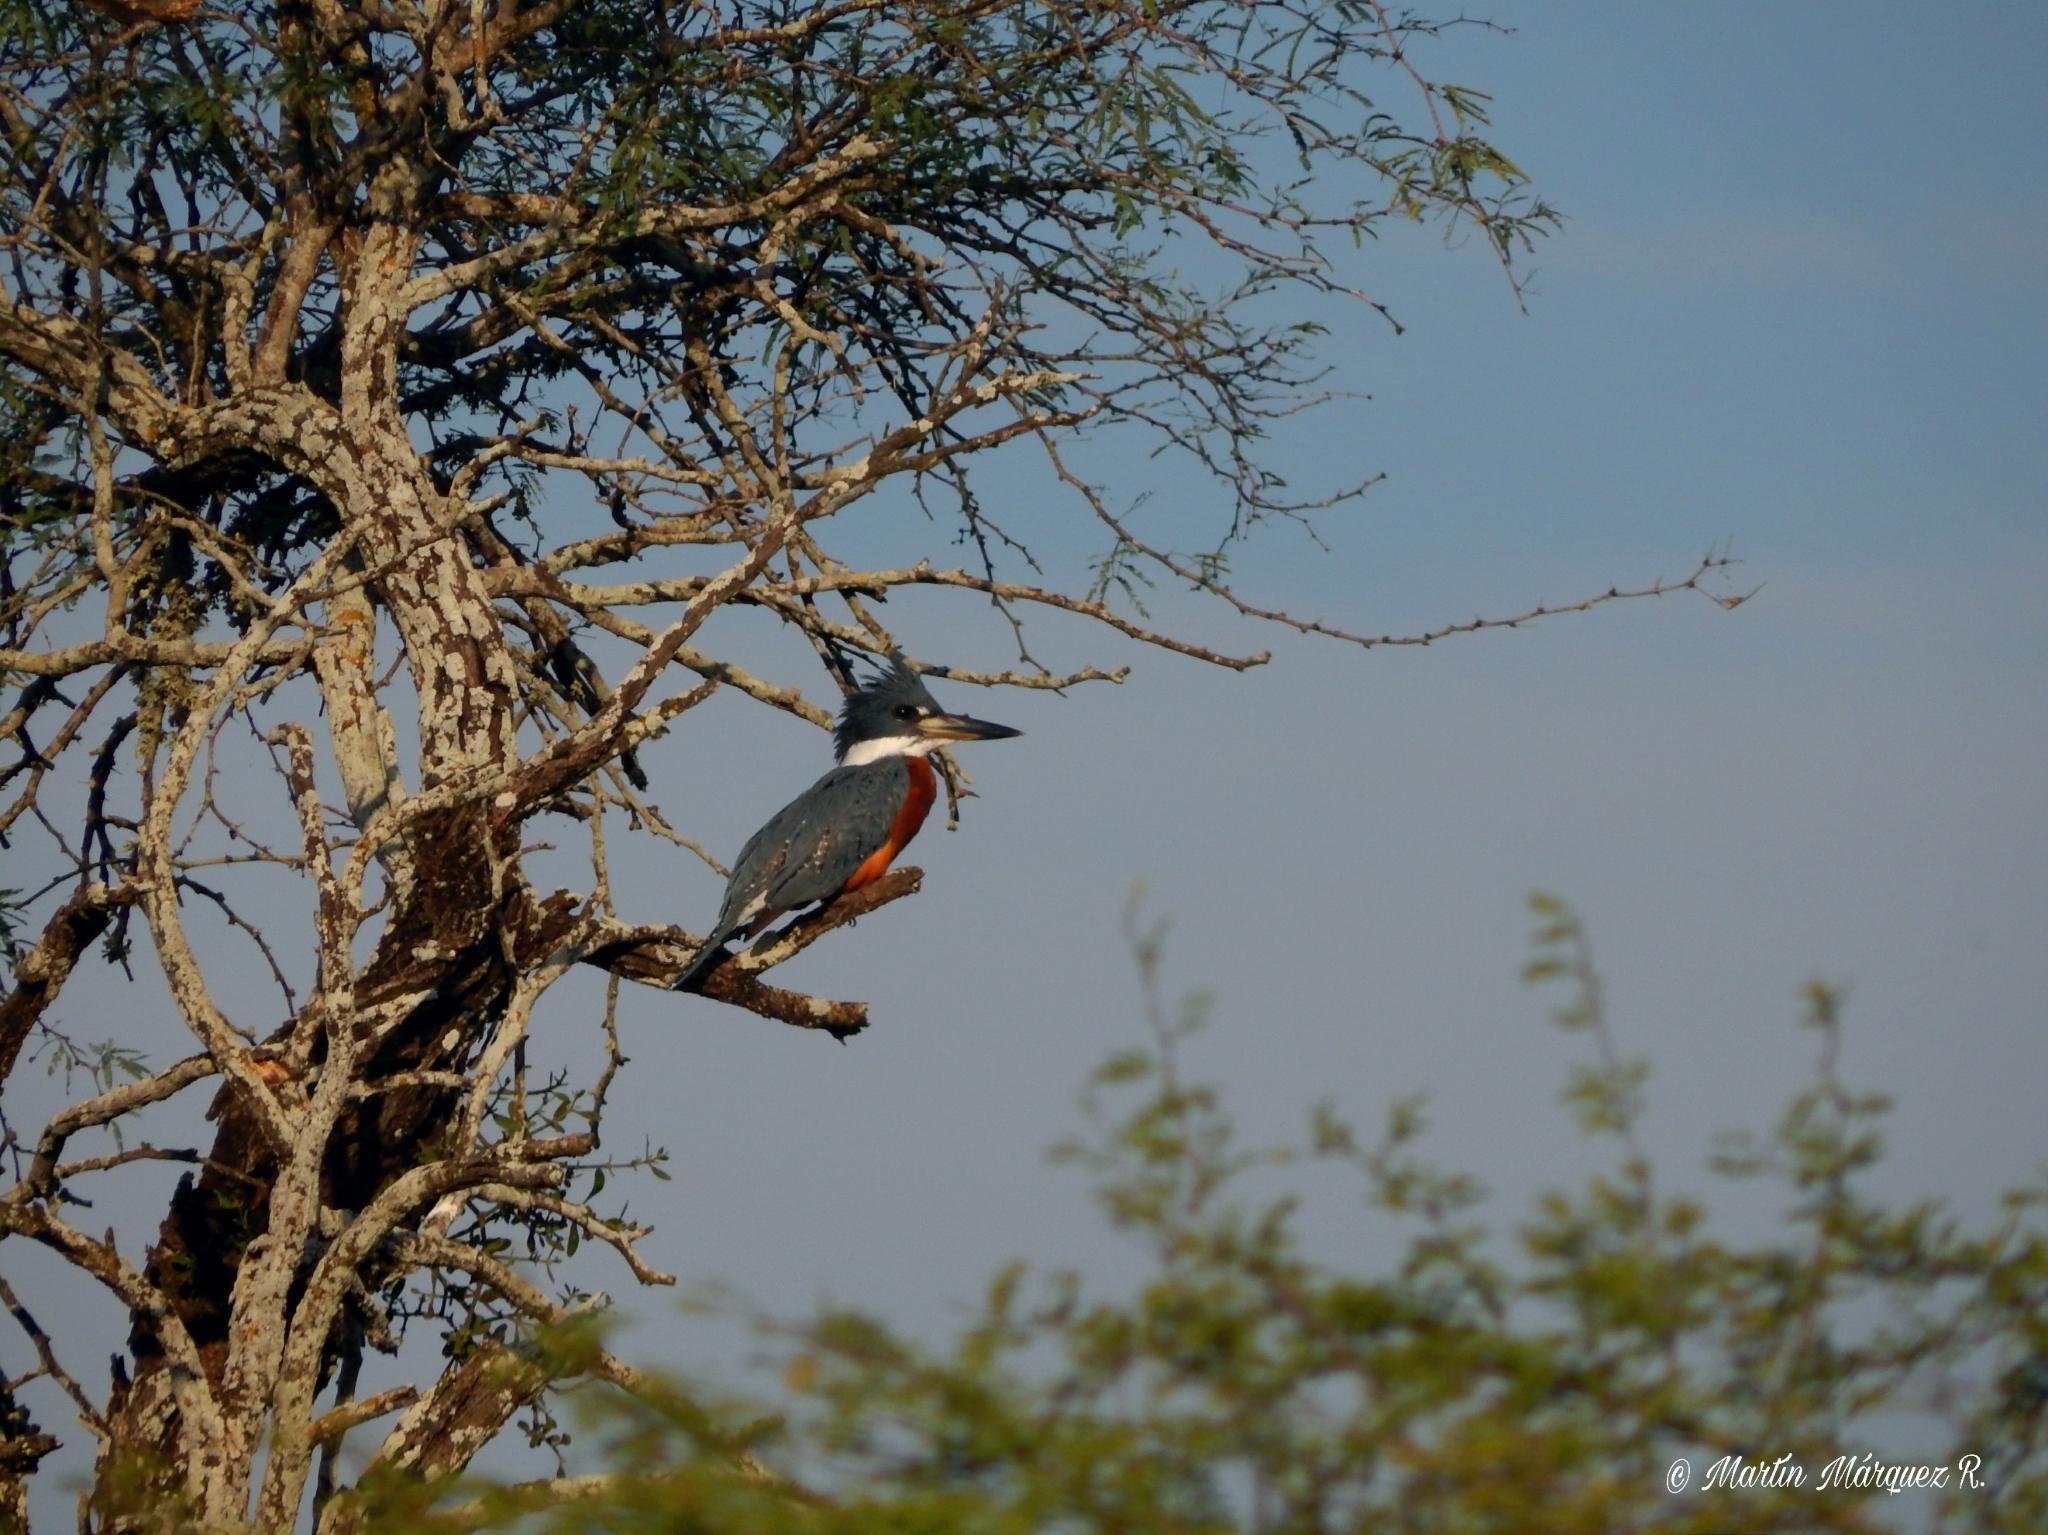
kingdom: Animalia
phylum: Chordata
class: Aves
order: Coraciiformes
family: Alcedinidae
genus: Megaceryle
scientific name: Megaceryle torquata
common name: Ringed kingfisher
